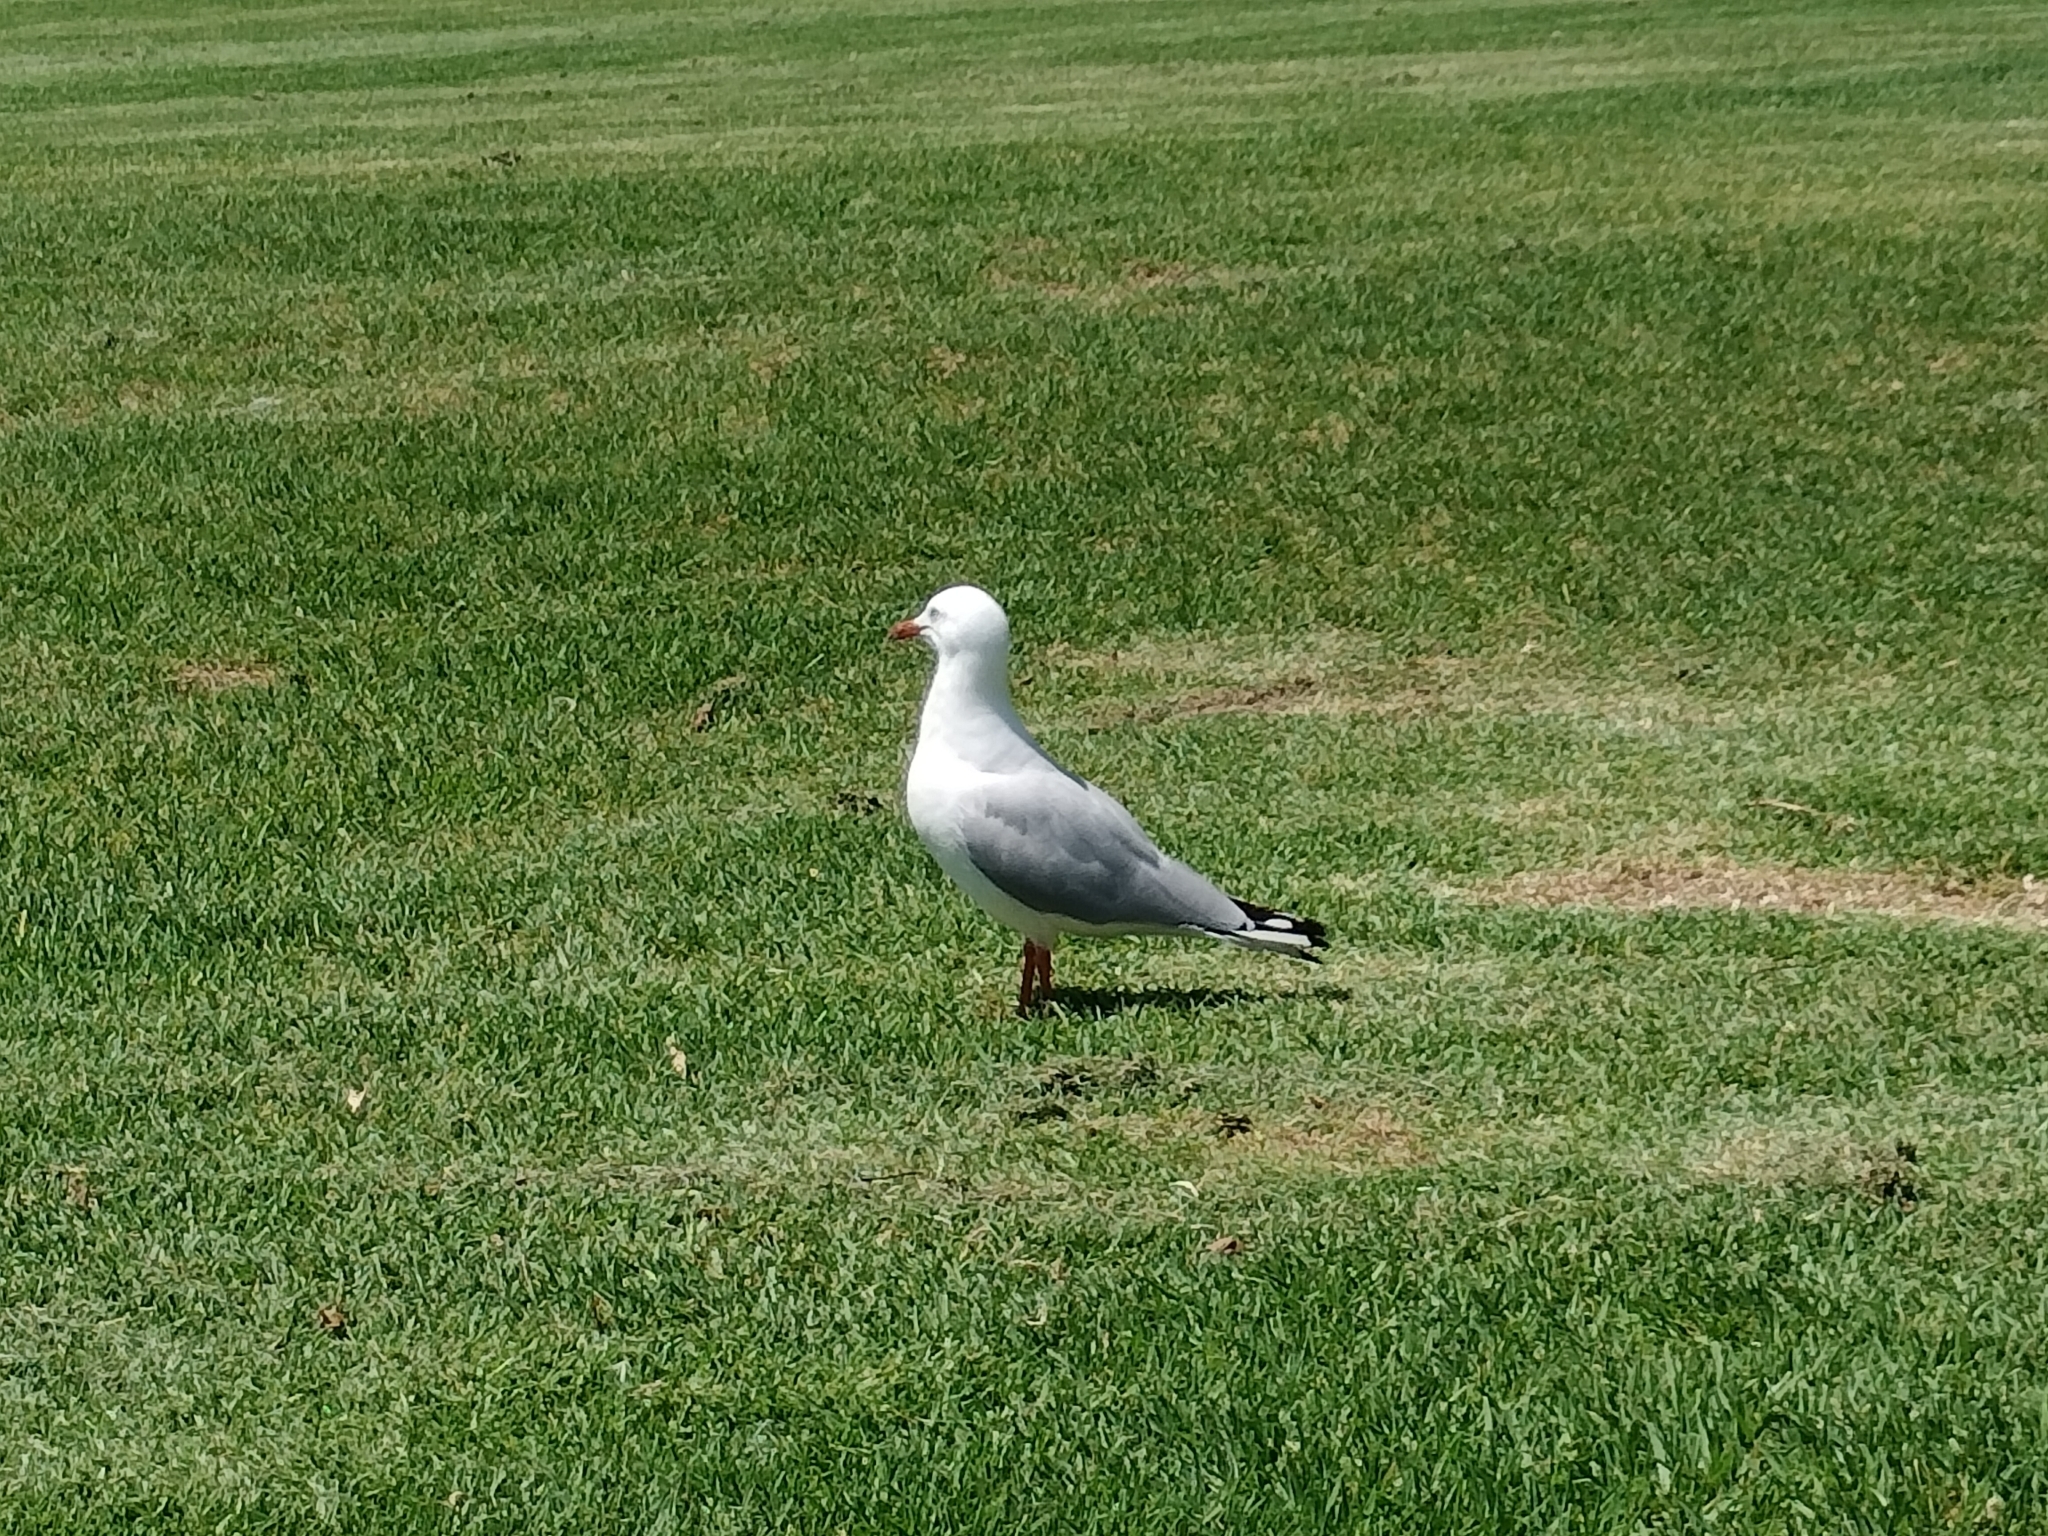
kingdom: Animalia
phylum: Chordata
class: Aves
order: Charadriiformes
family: Laridae
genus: Chroicocephalus
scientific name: Chroicocephalus novaehollandiae
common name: Silver gull
